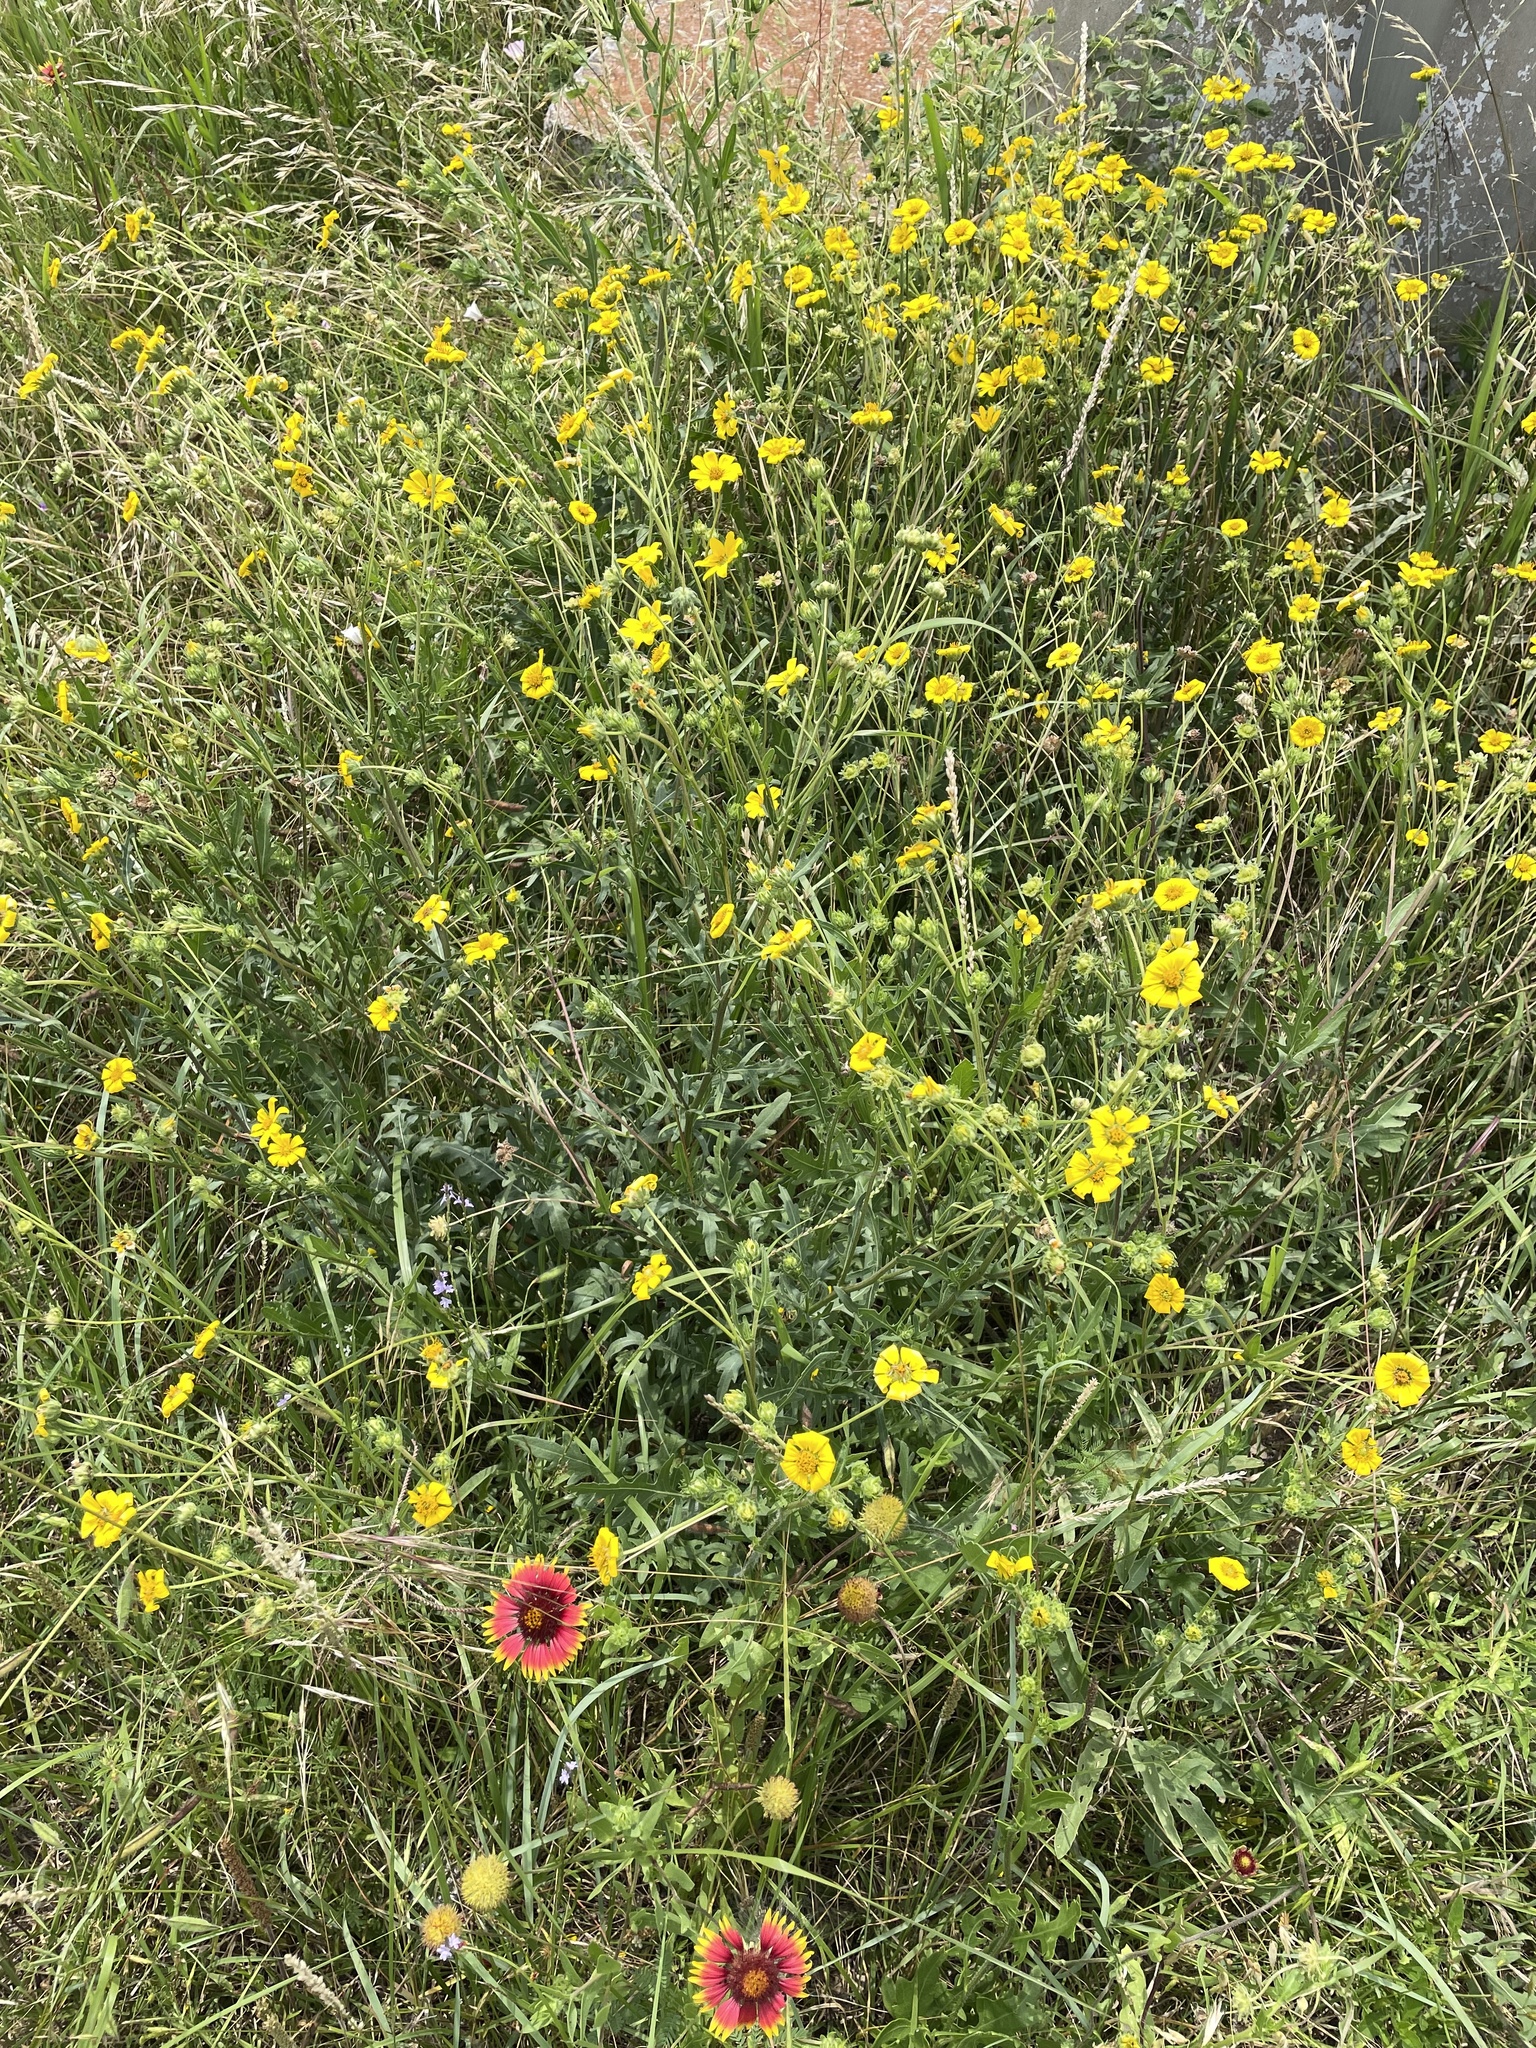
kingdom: Plantae
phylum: Tracheophyta
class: Magnoliopsida
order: Asterales
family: Asteraceae
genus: Engelmannia
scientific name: Engelmannia peristenia
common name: Engelmann's daisy
